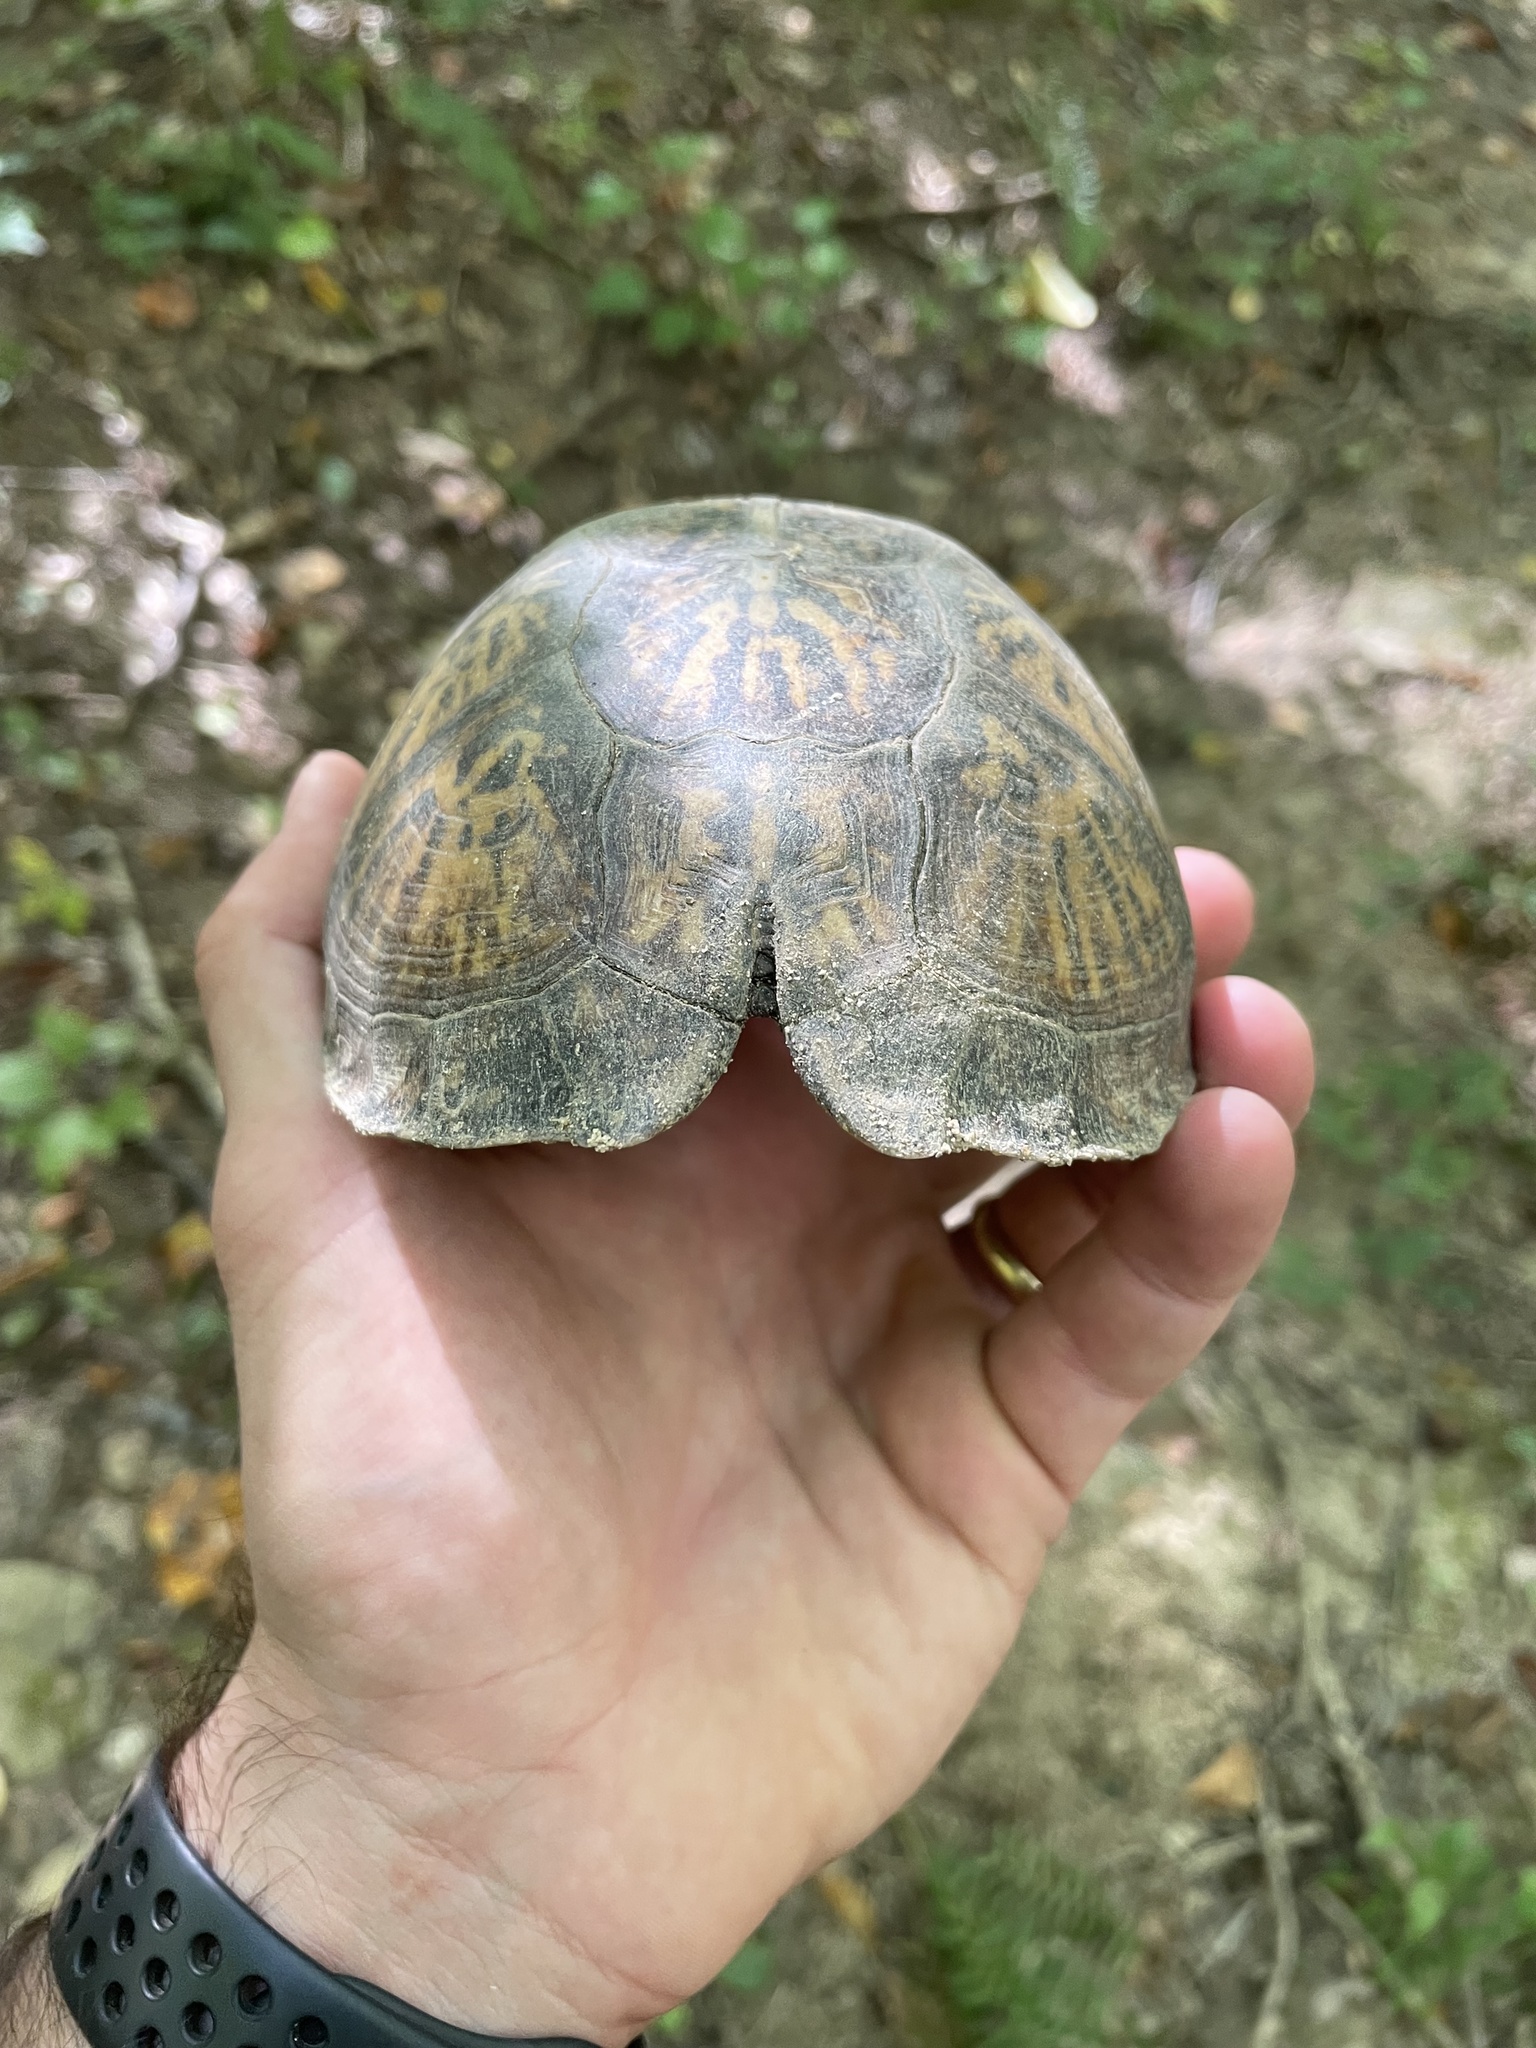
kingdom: Animalia
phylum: Chordata
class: Testudines
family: Emydidae
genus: Terrapene
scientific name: Terrapene carolina
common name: Common box turtle
